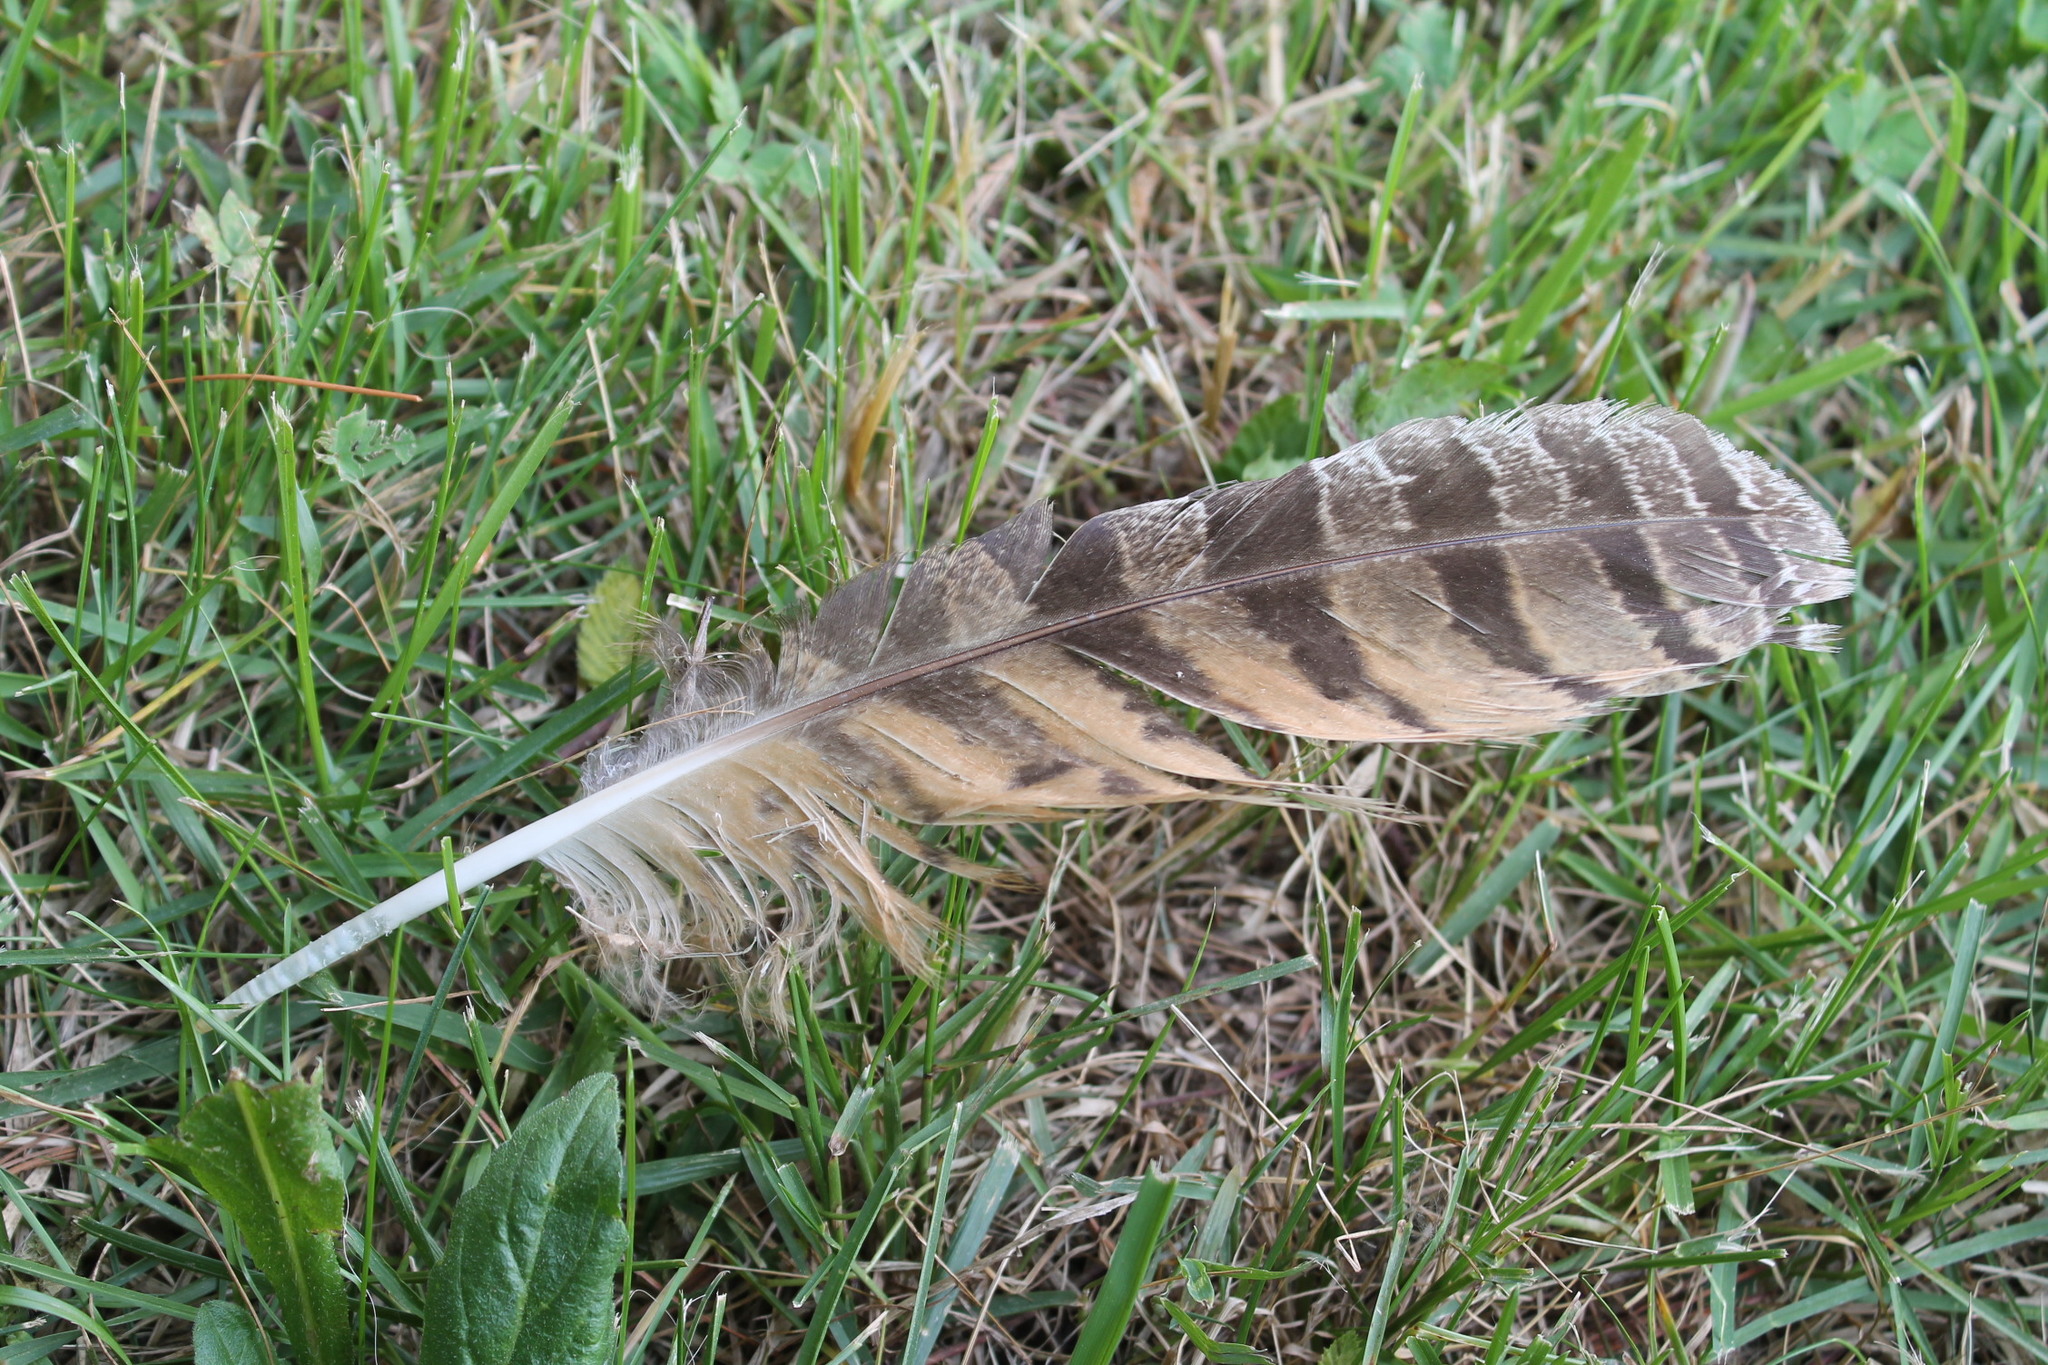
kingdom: Animalia
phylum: Chordata
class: Aves
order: Strigiformes
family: Strigidae
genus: Bubo
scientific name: Bubo virginianus
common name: Great horned owl
